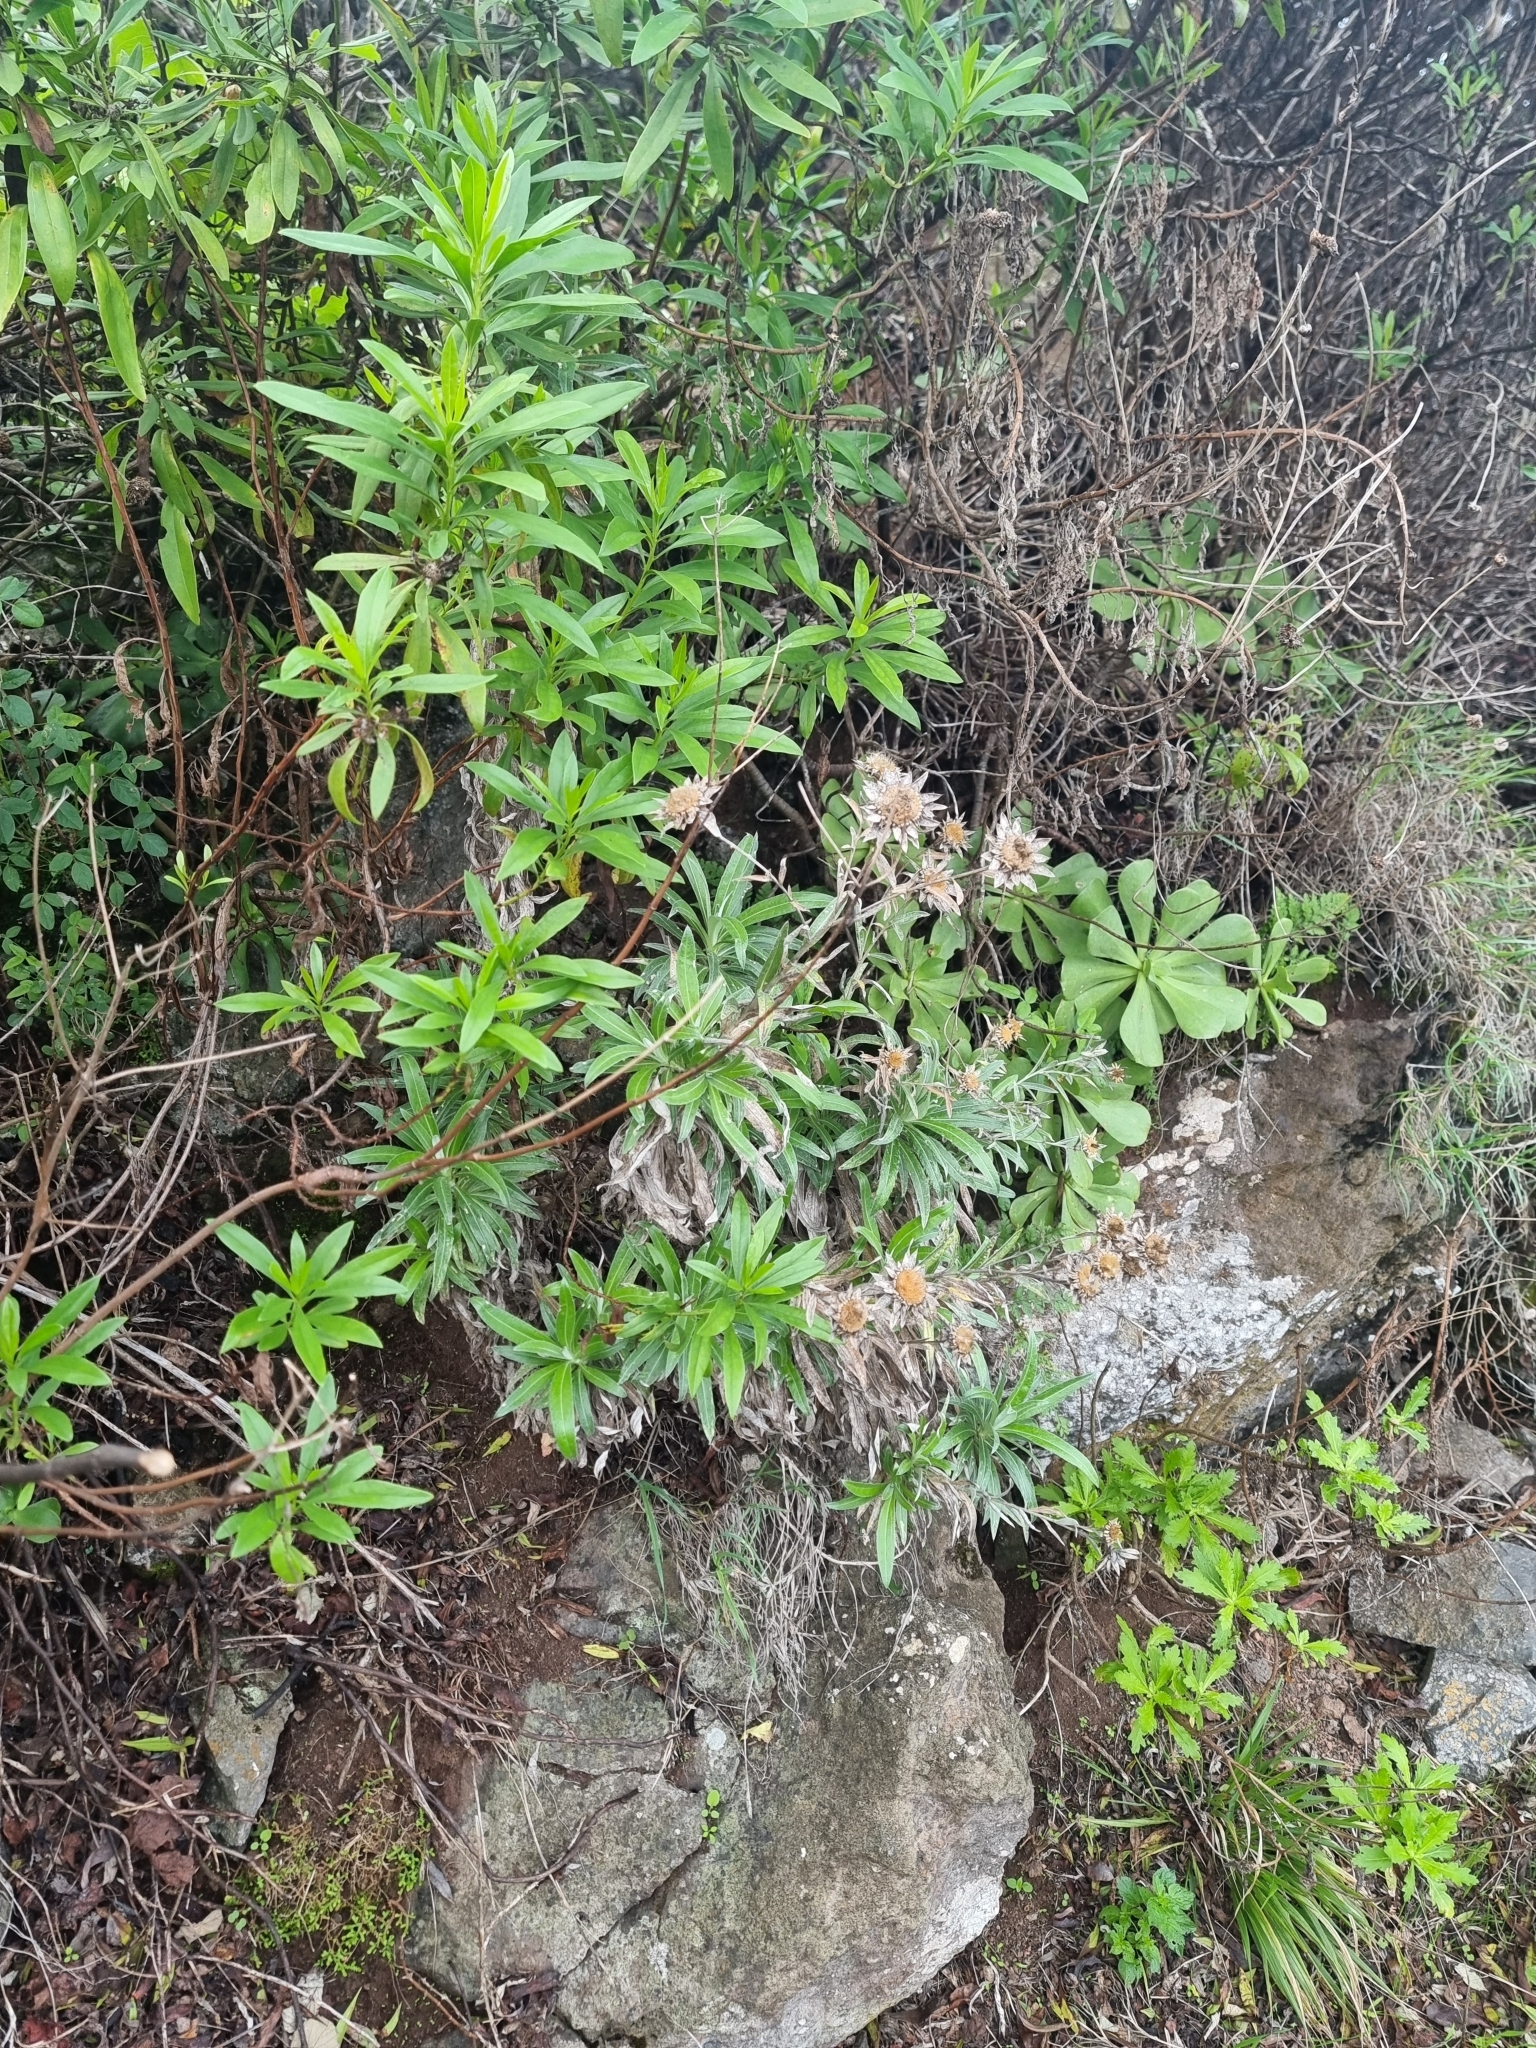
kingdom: Plantae
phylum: Tracheophyta
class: Magnoliopsida
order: Asterales
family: Asteraceae
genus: Carlina
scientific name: Carlina salicifolia
